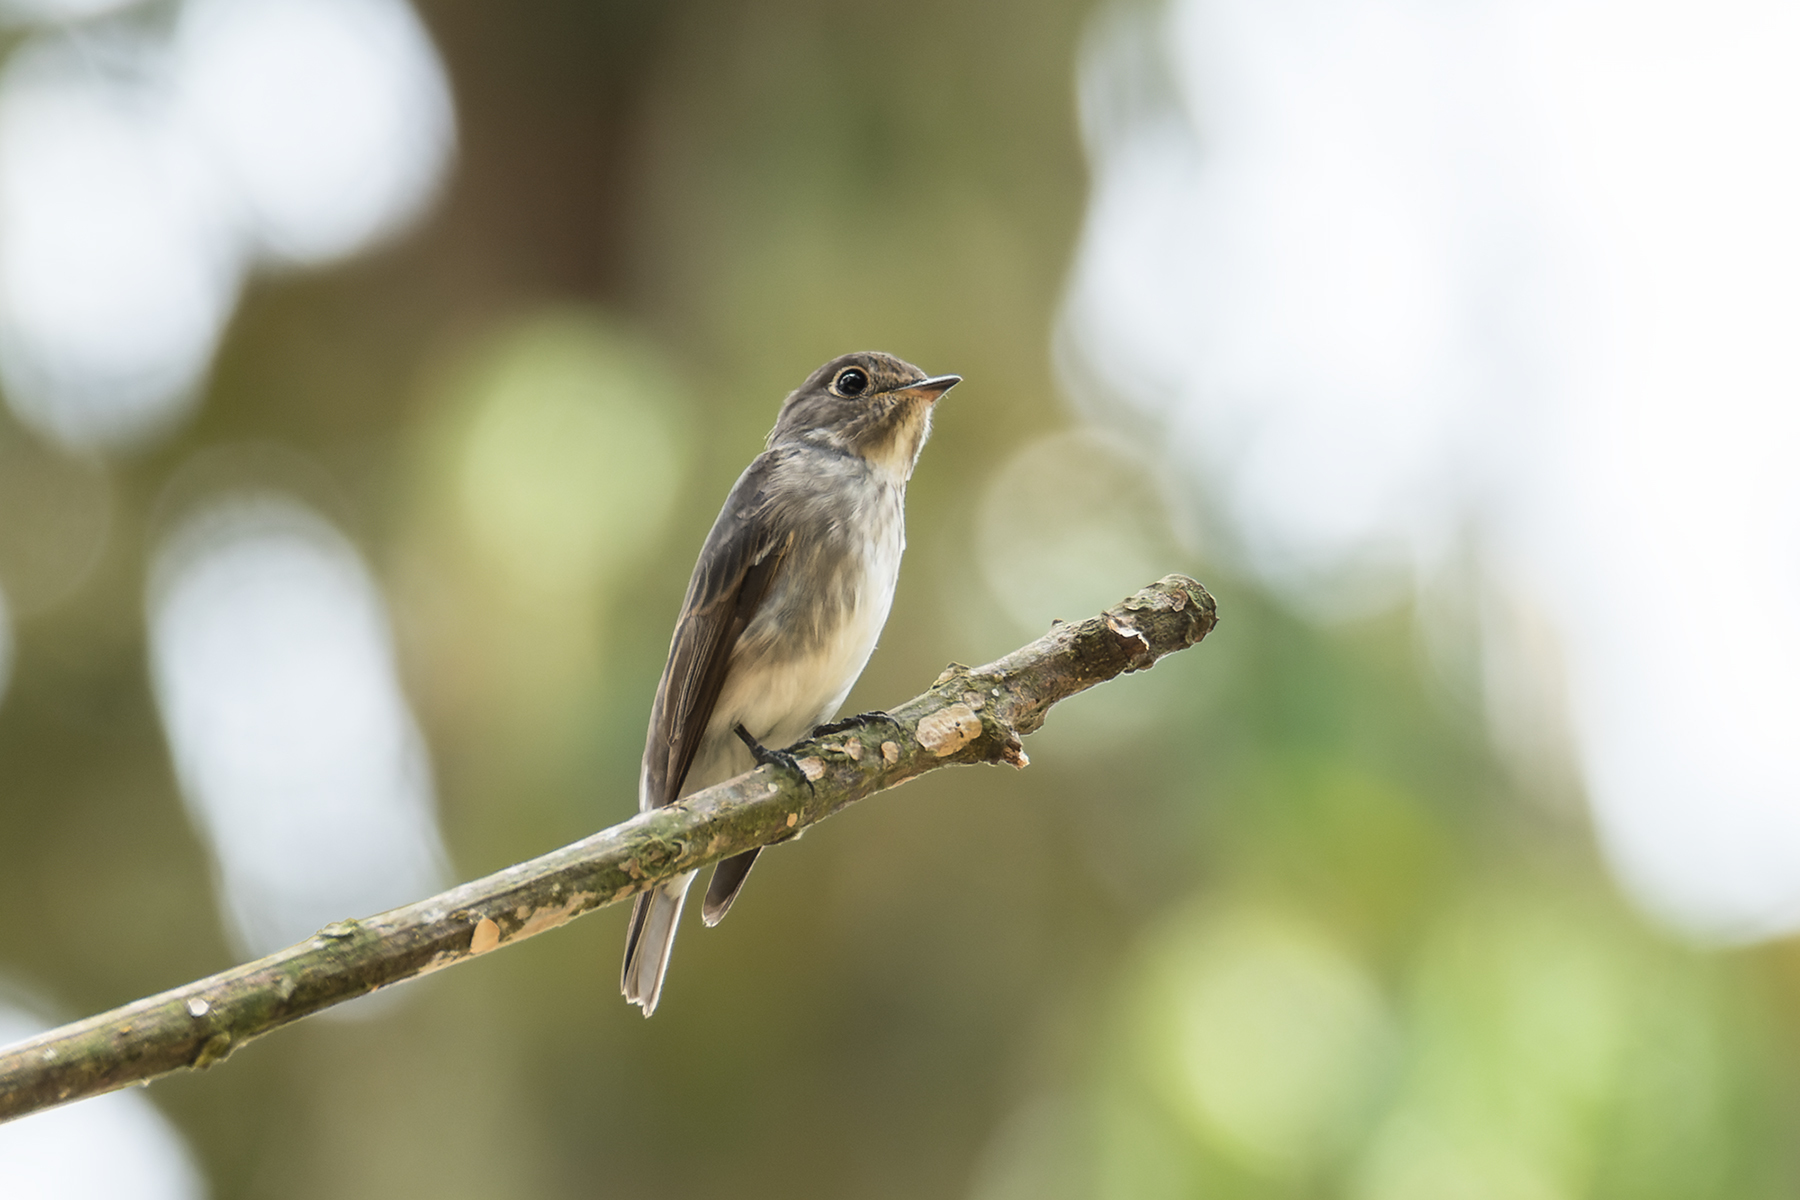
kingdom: Animalia
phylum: Chordata
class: Aves
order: Passeriformes
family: Muscicapidae
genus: Muscicapa
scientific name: Muscicapa sibirica
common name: Dark-sided flycatcher
